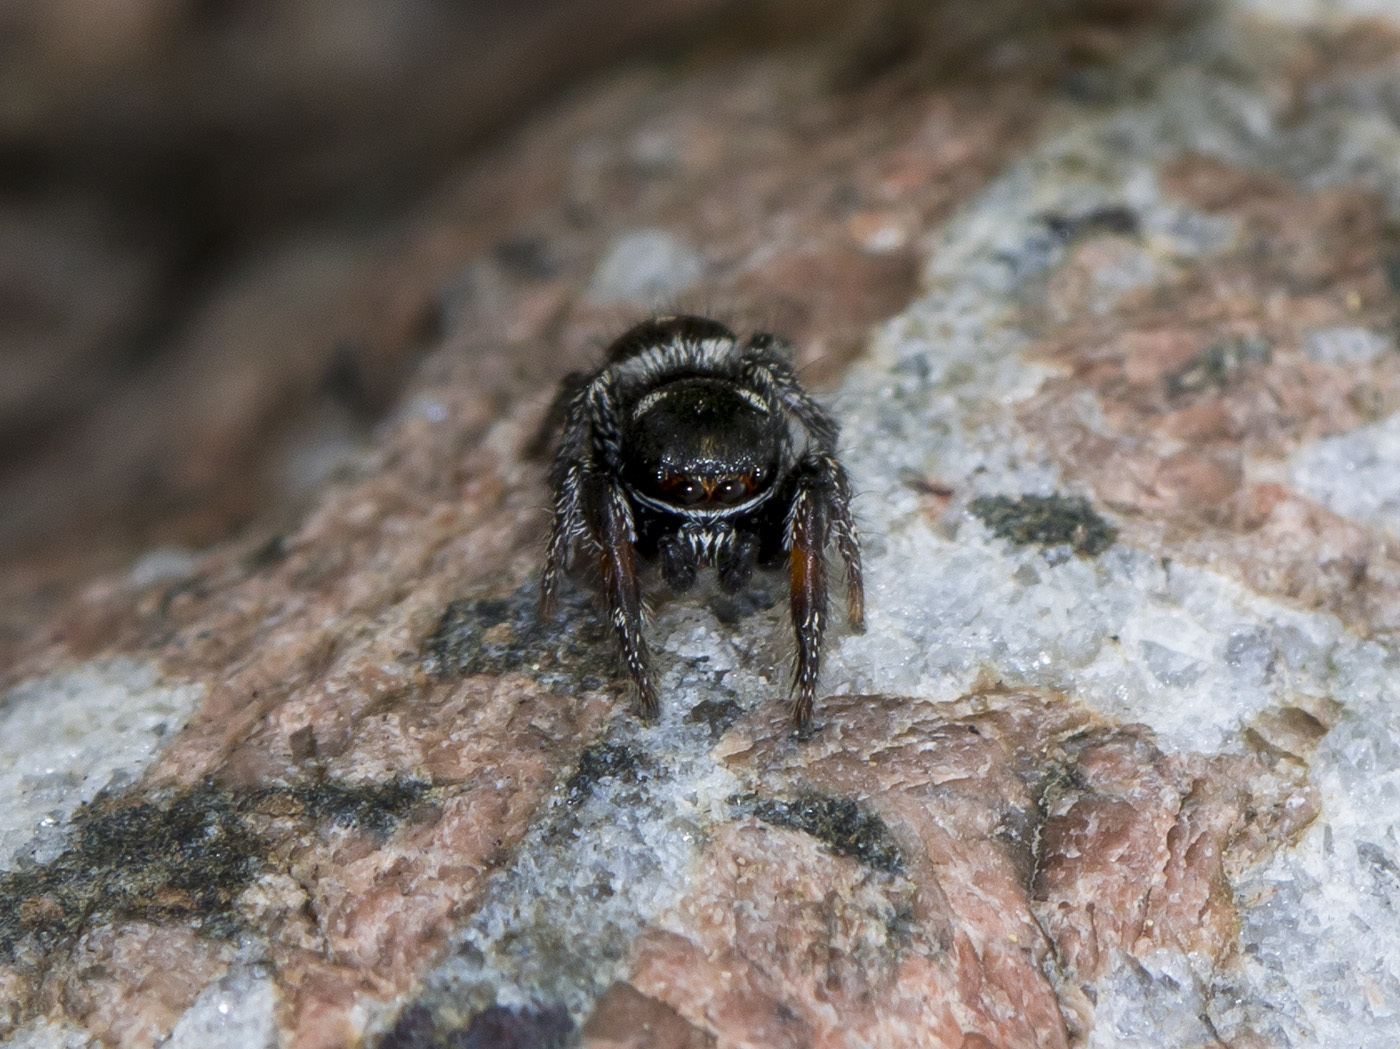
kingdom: Animalia
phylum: Arthropoda
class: Arachnida
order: Araneae
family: Salticidae
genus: Pellenes
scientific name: Pellenes allegrii
